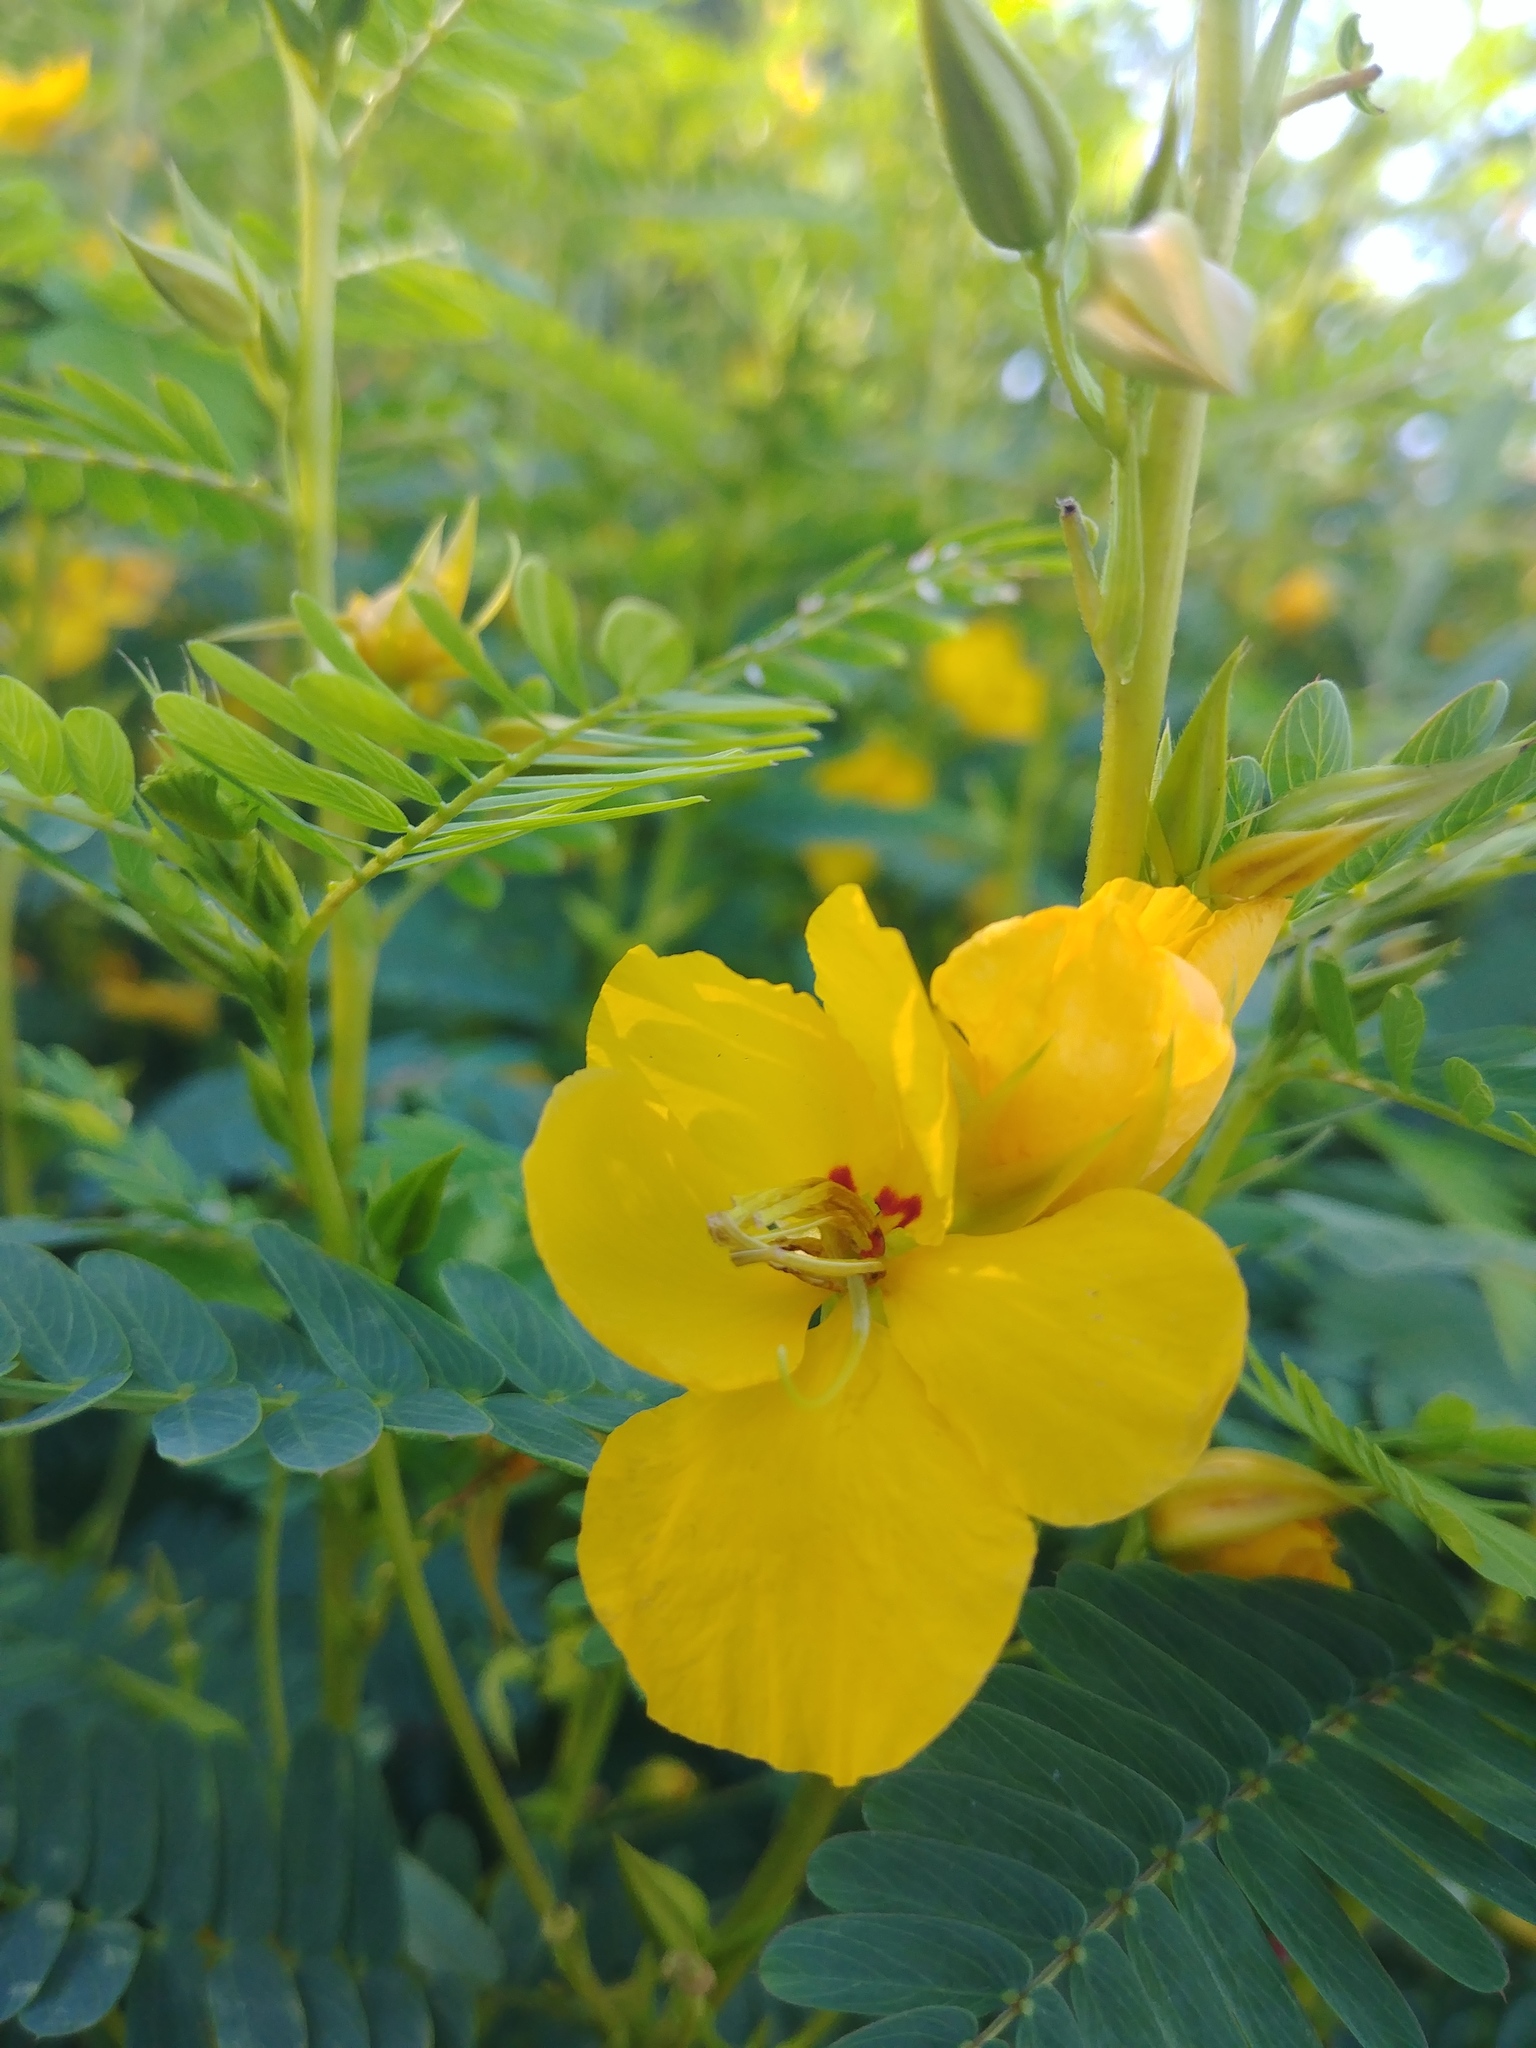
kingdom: Plantae
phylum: Tracheophyta
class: Magnoliopsida
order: Fabales
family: Fabaceae
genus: Chamaecrista
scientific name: Chamaecrista fasciculata
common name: Golden cassia
